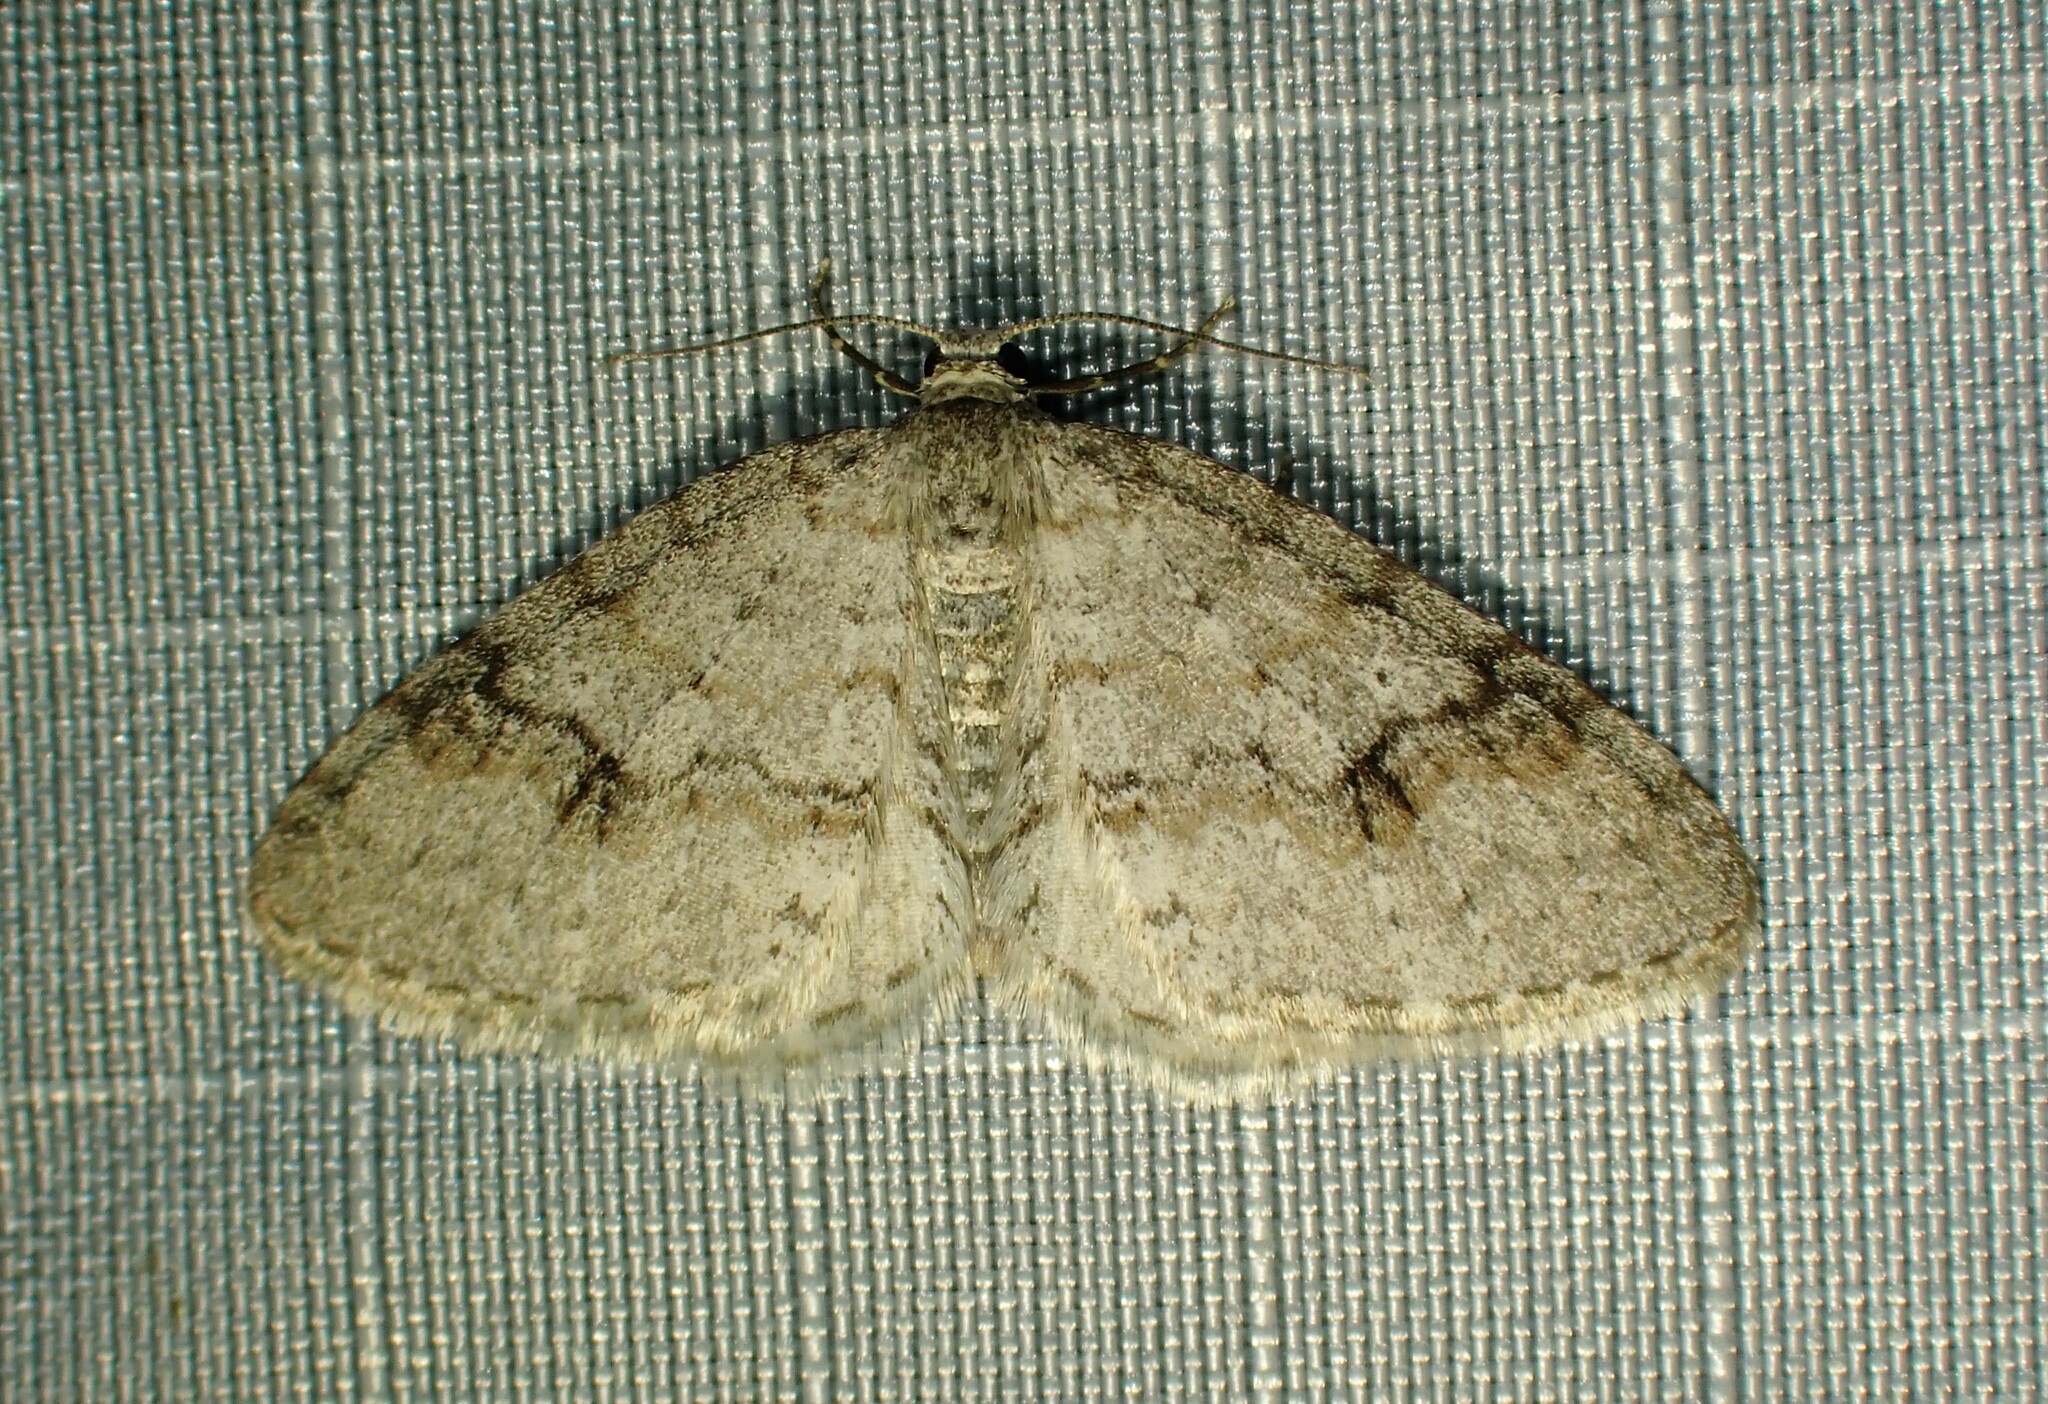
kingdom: Animalia
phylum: Arthropoda
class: Insecta
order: Lepidoptera
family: Geometridae
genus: Venusia
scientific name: Venusia comptaria
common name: Brown-shaded carpet
